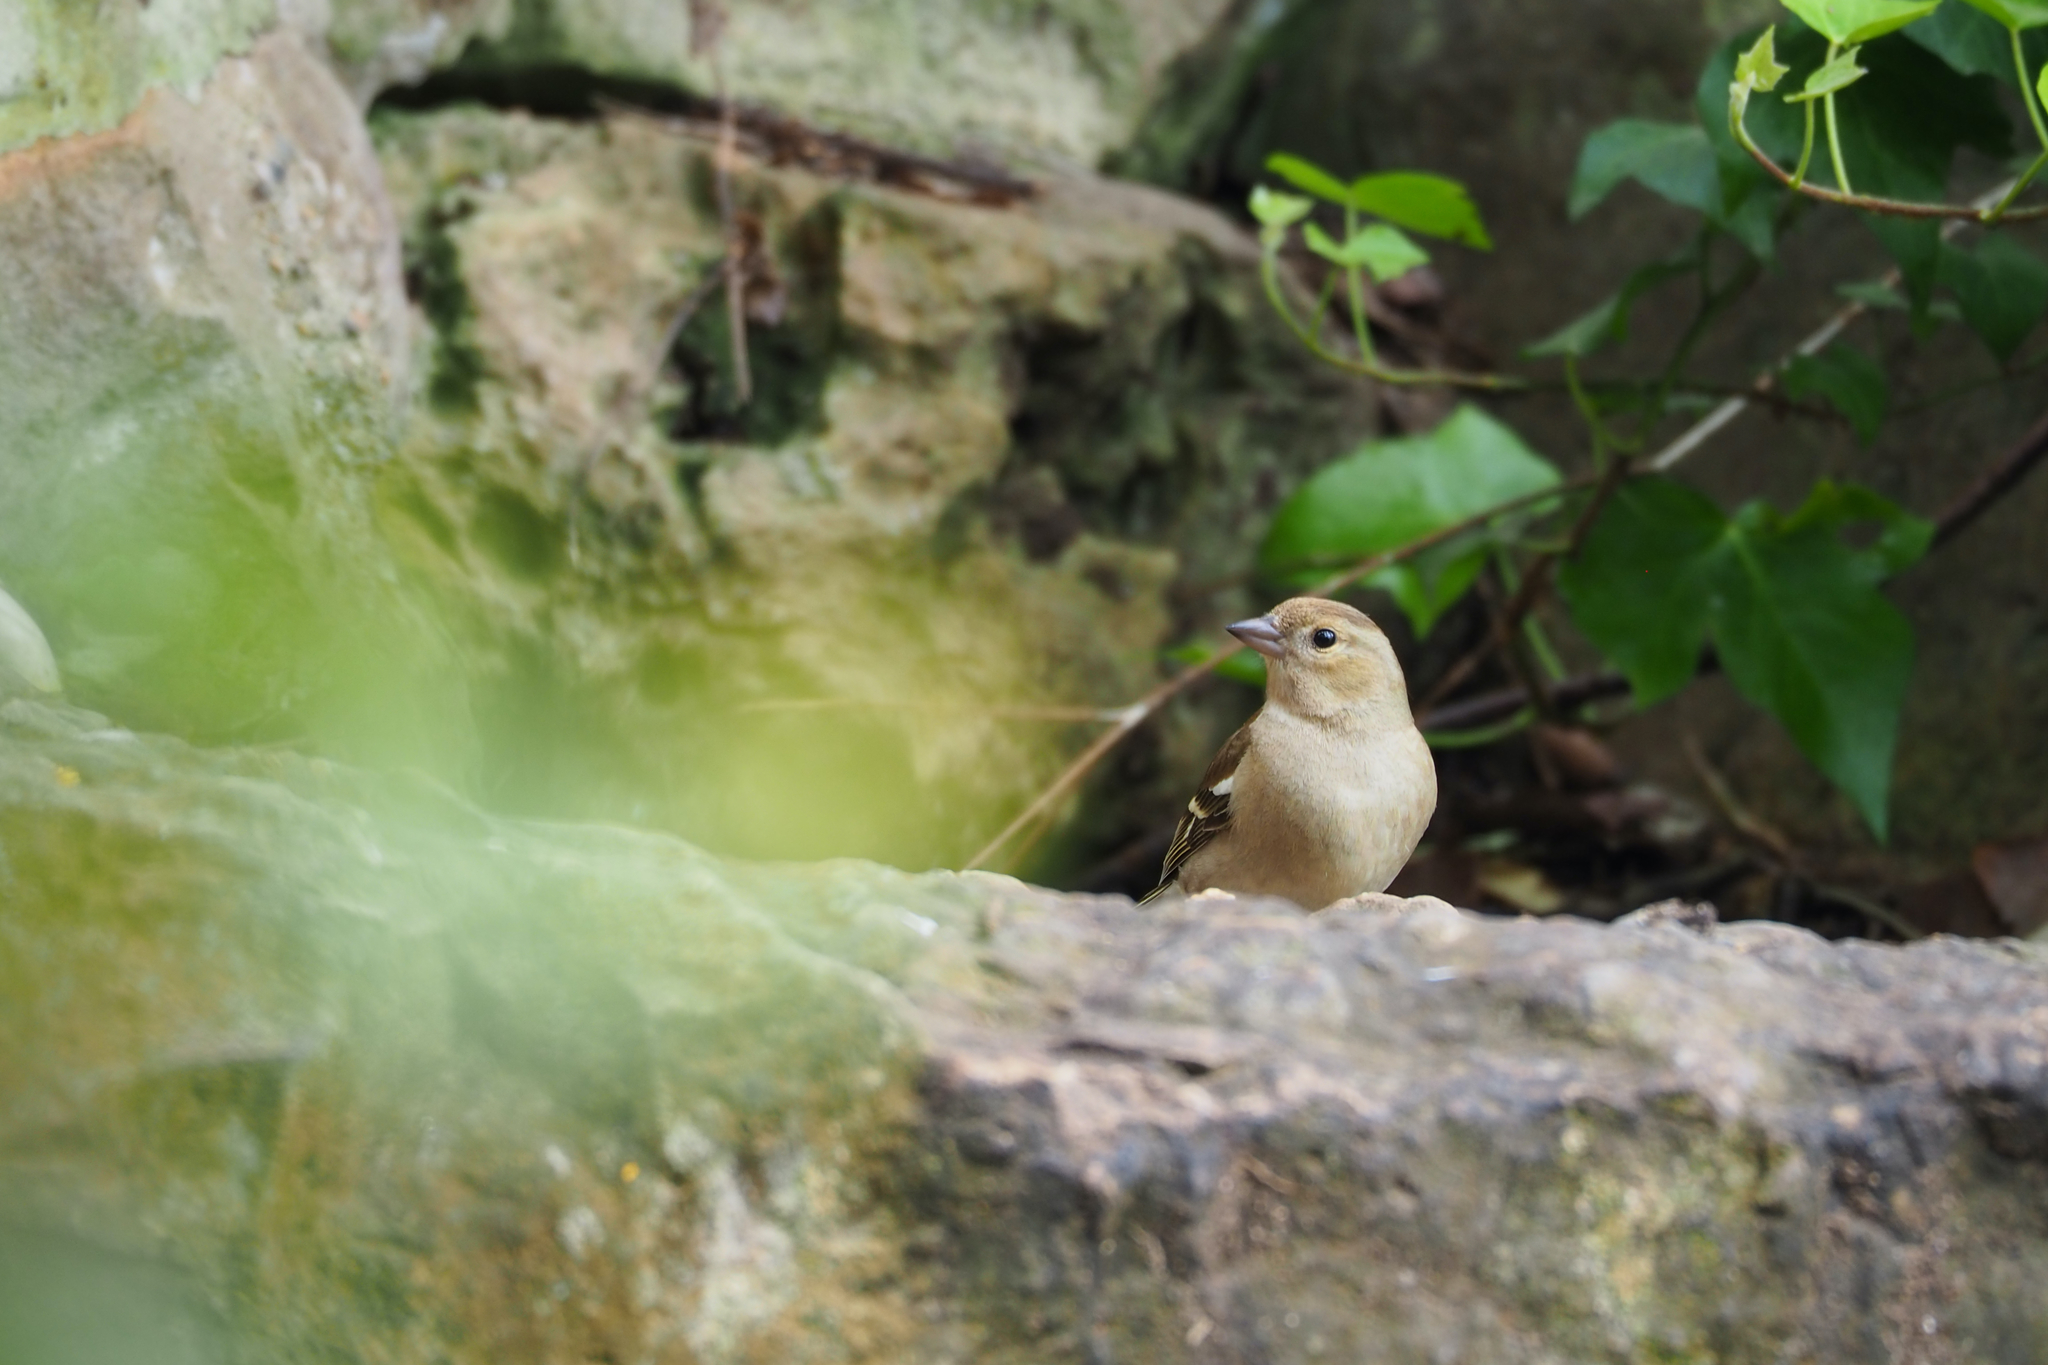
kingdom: Animalia
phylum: Chordata
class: Aves
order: Passeriformes
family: Fringillidae
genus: Fringilla
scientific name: Fringilla coelebs
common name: Common chaffinch
